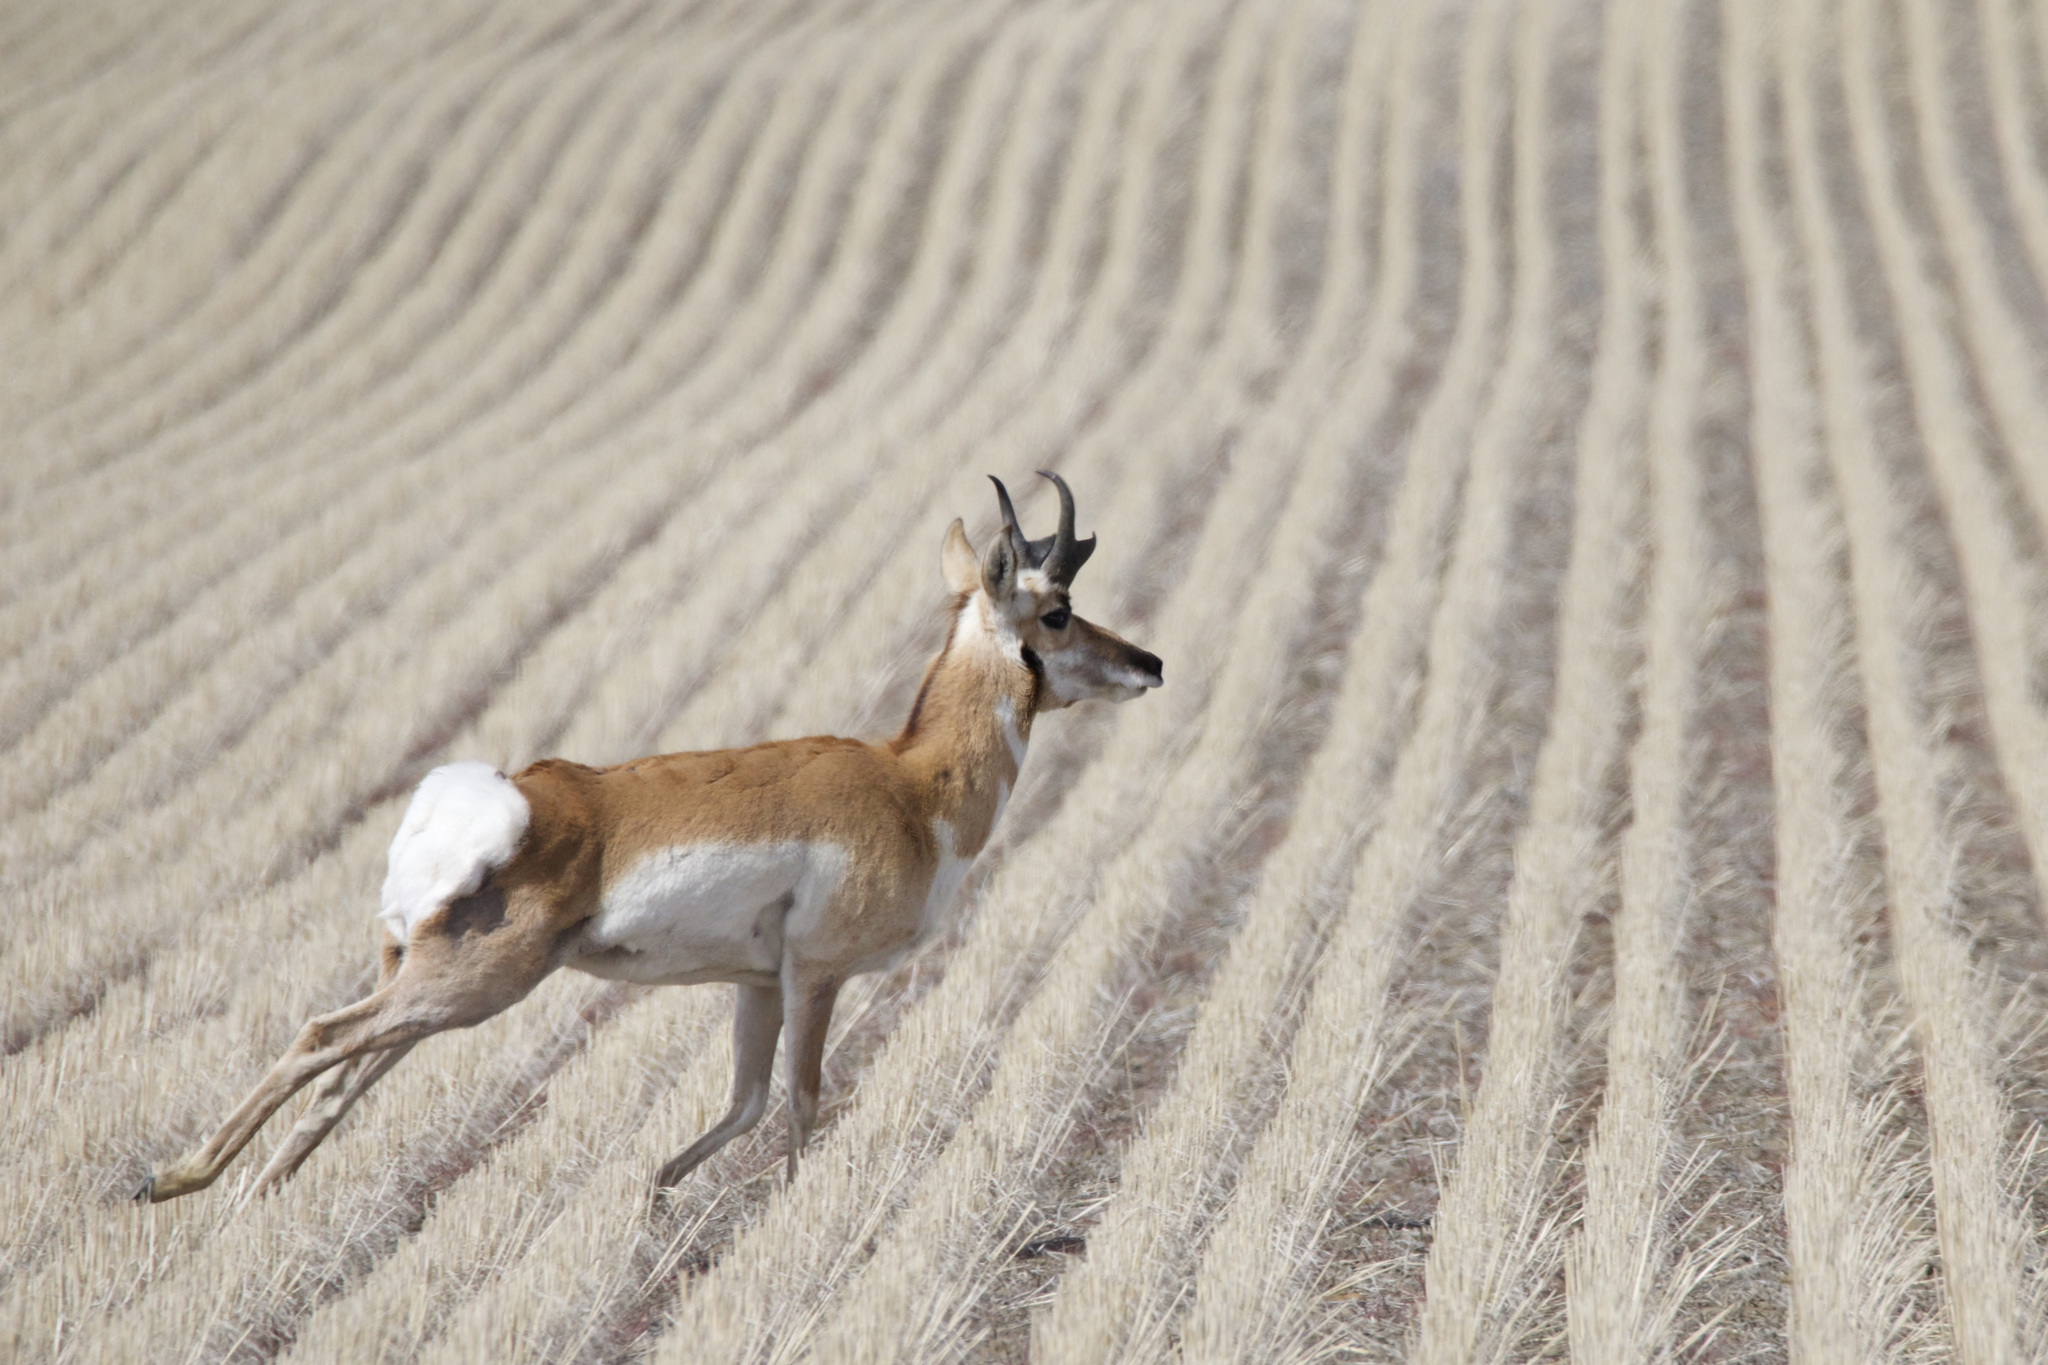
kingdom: Animalia
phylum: Chordata
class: Mammalia
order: Artiodactyla
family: Antilocapridae
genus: Antilocapra
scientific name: Antilocapra americana
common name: Pronghorn
